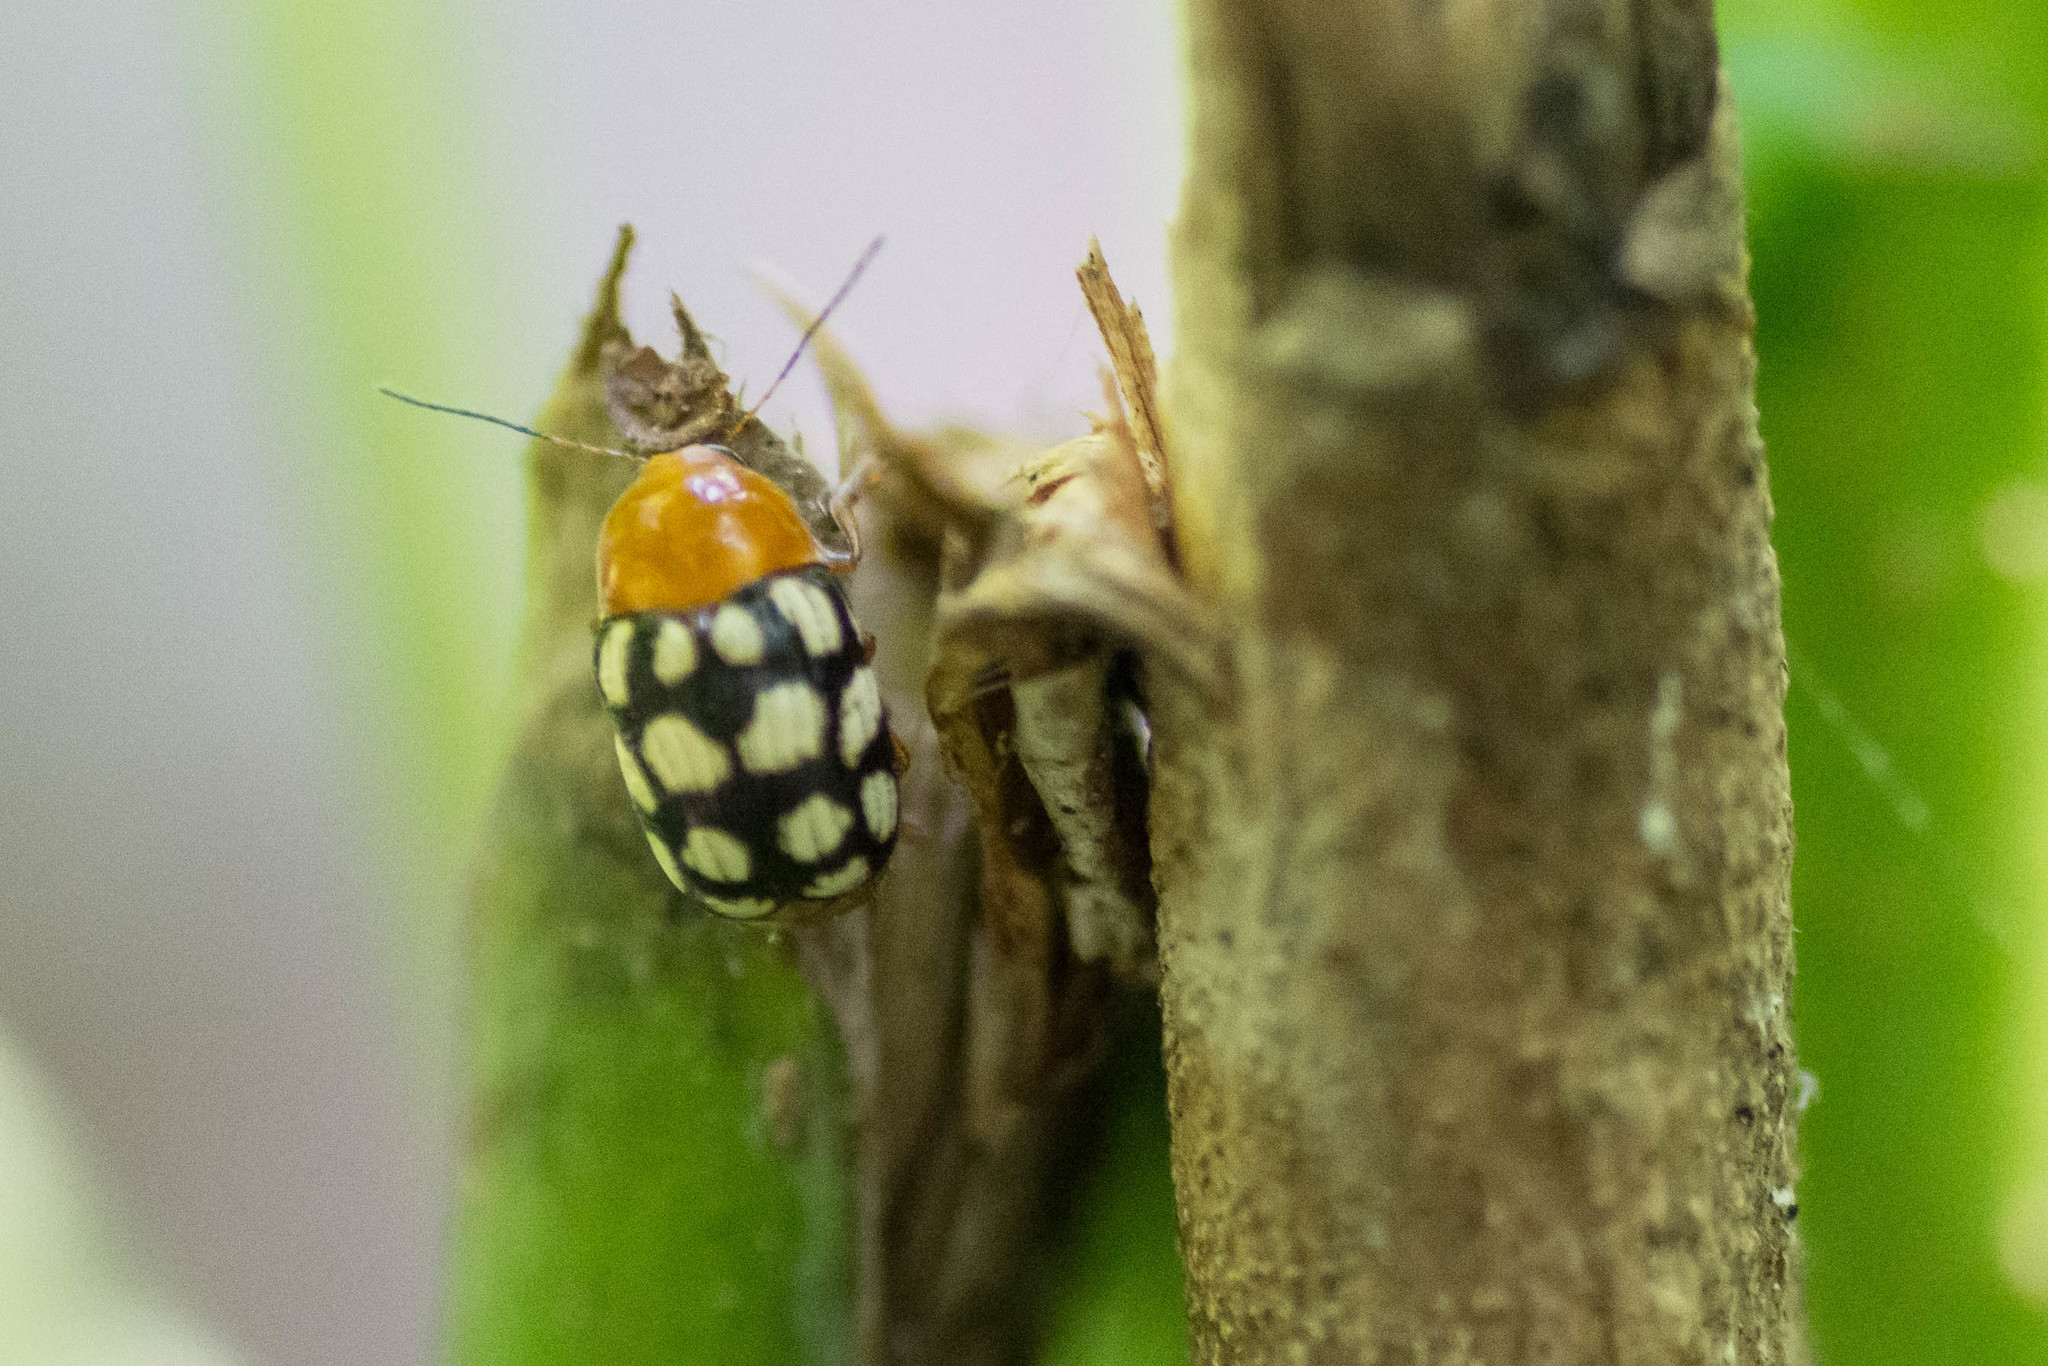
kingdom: Animalia
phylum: Arthropoda
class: Insecta
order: Coleoptera
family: Chrysomelidae
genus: Cryptocephalus
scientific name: Cryptocephalus guttulatus
